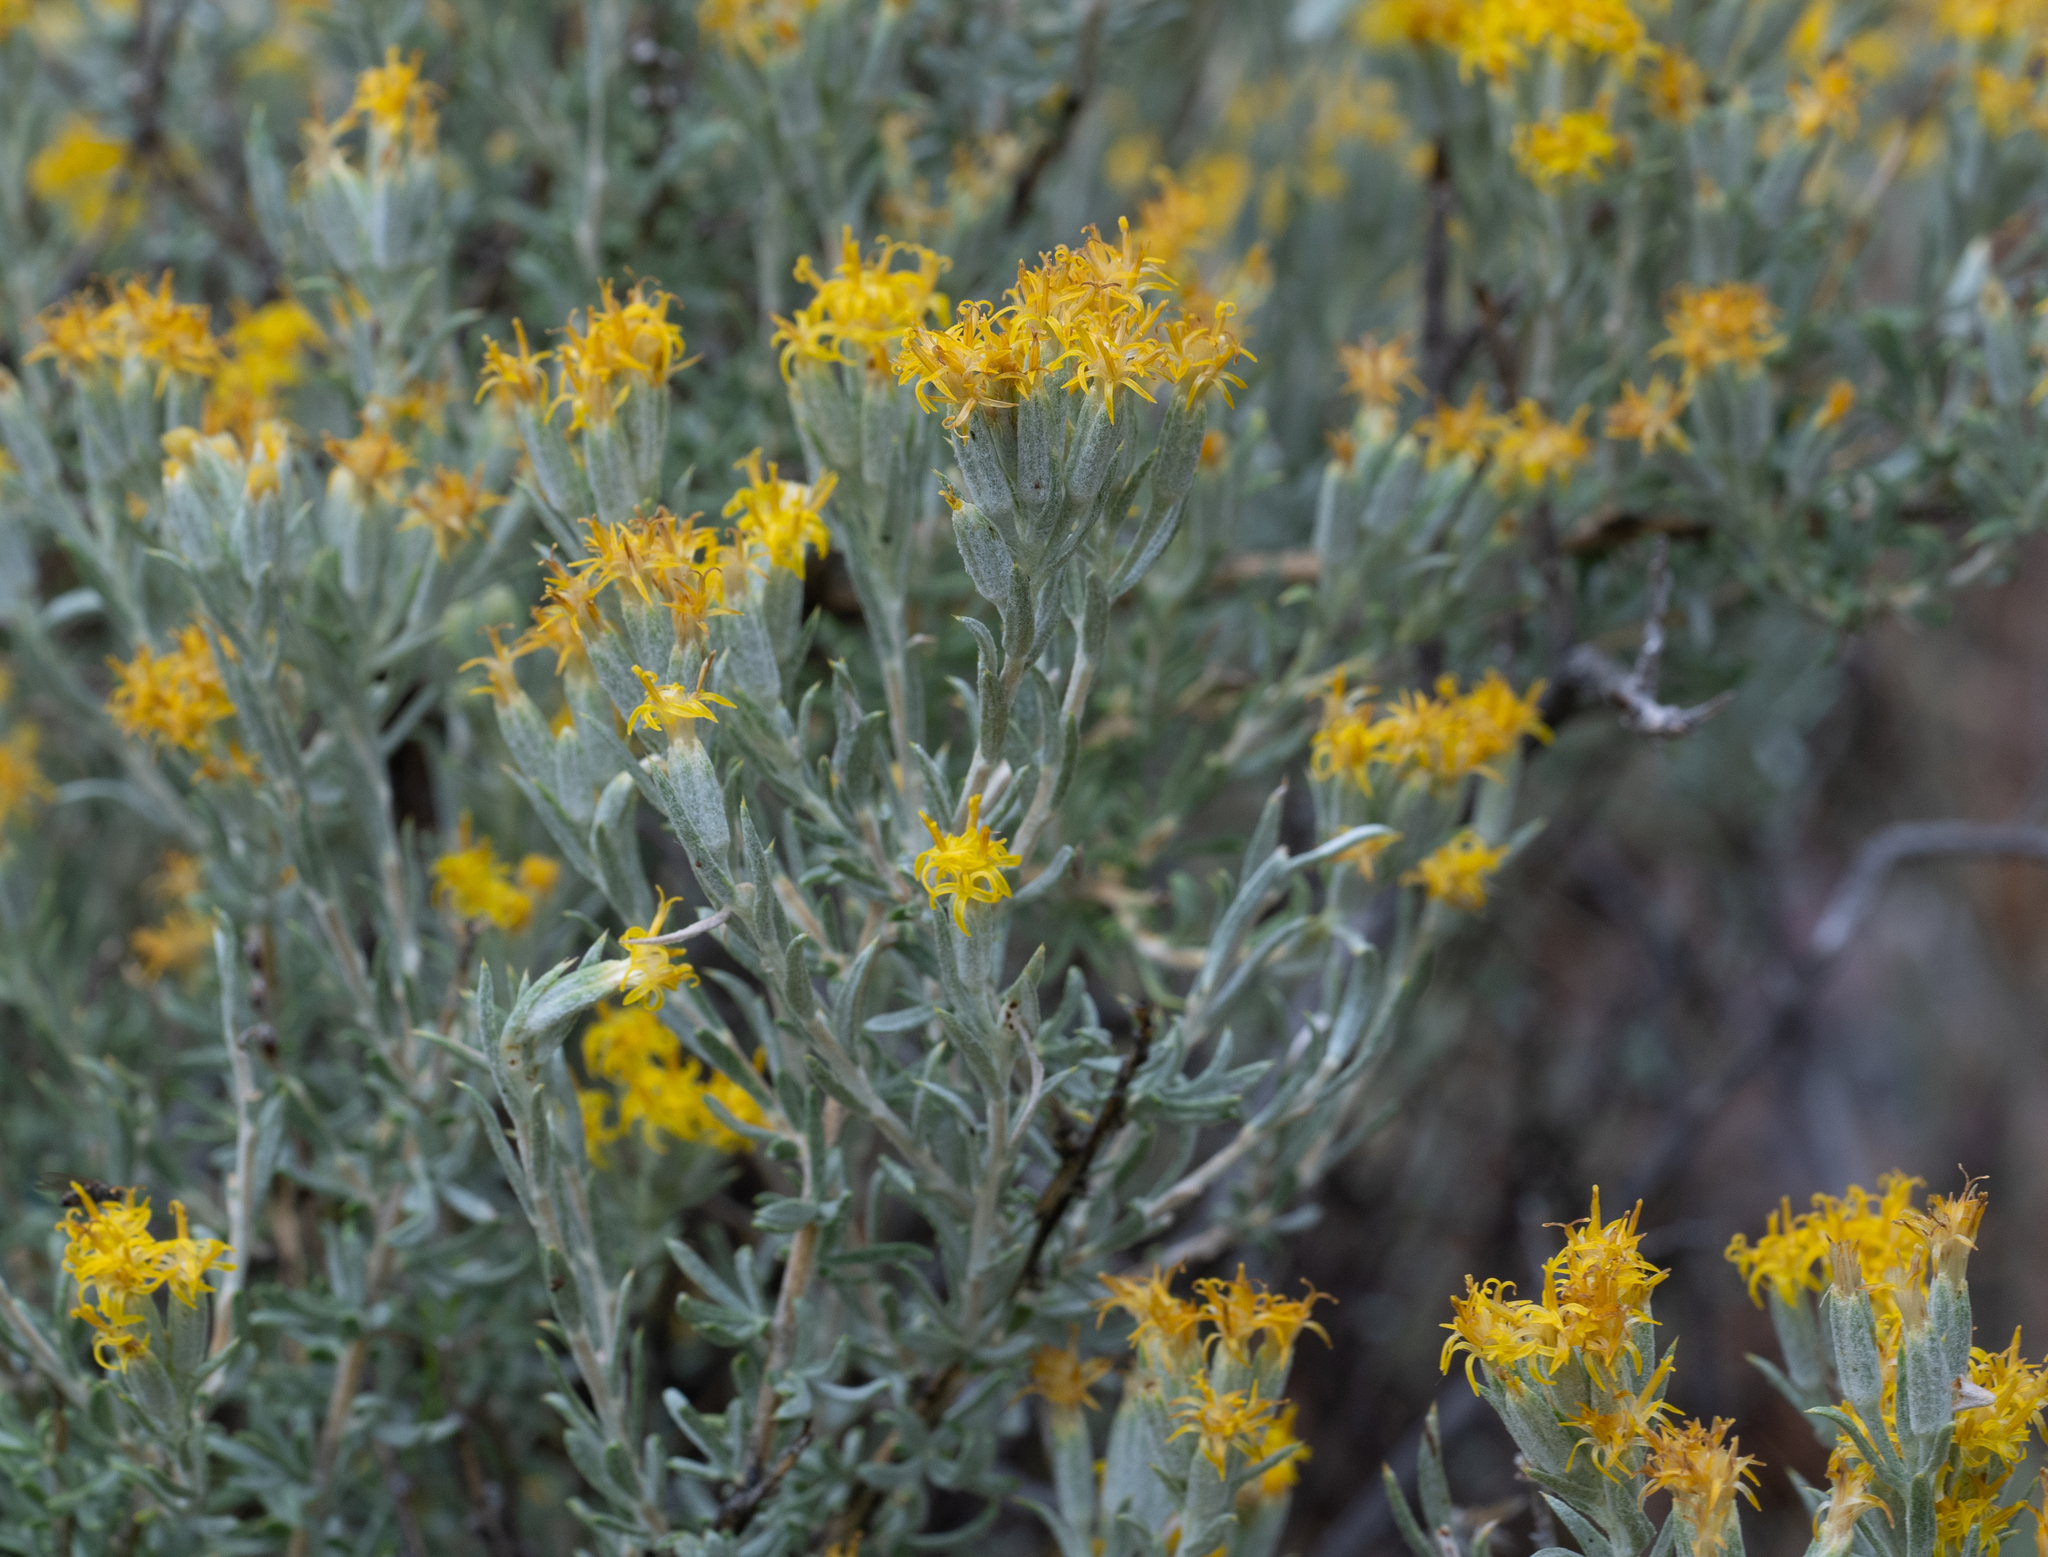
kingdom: Plantae
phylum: Tracheophyta
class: Magnoliopsida
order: Asterales
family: Asteraceae
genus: Tetradymia
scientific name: Tetradymia canescens
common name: Spineless horsebrush
